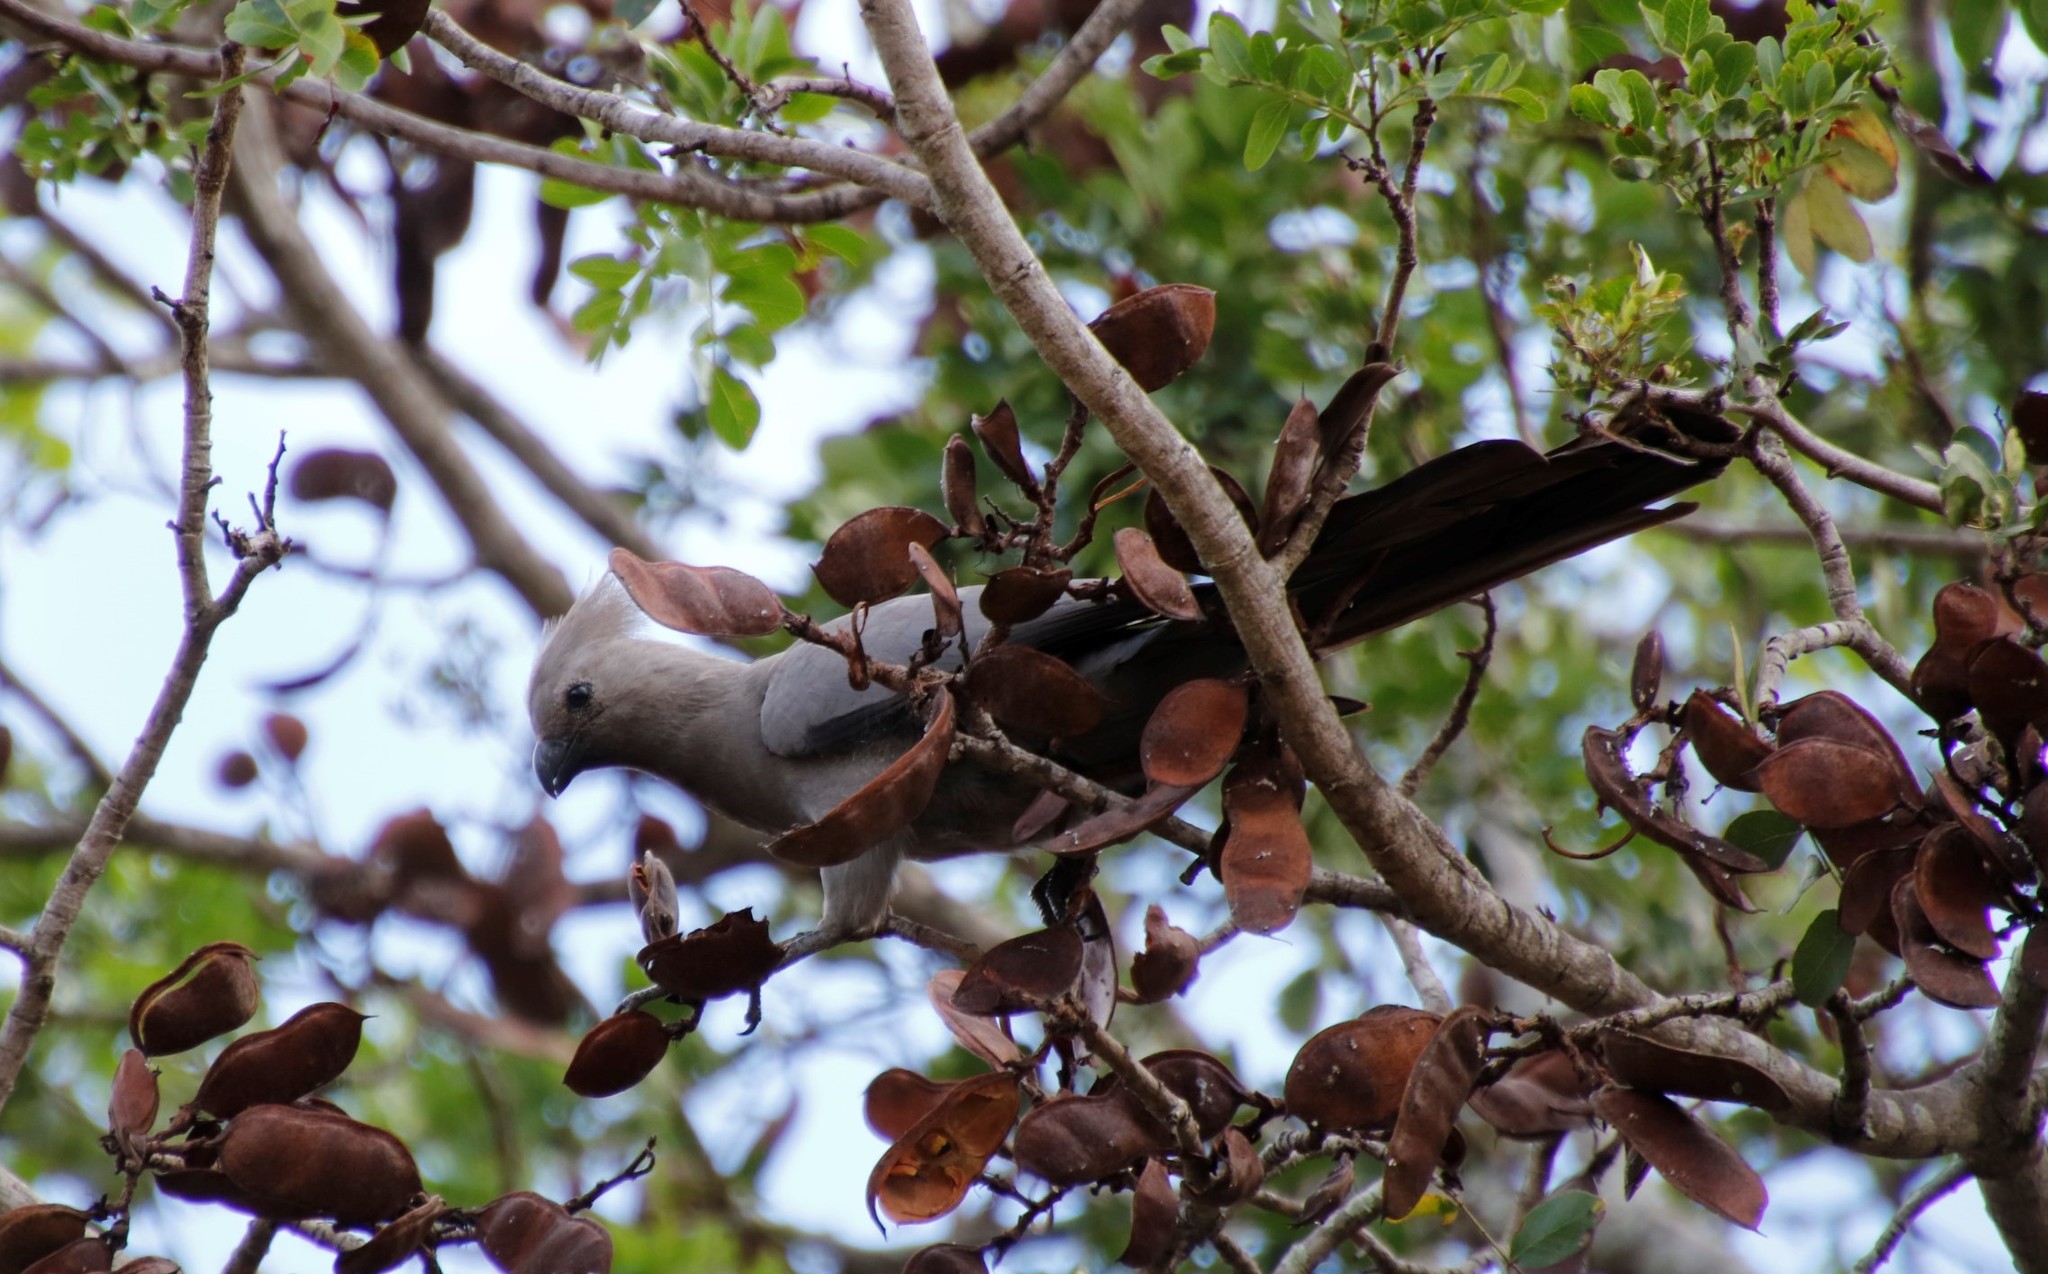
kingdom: Animalia
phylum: Chordata
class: Aves
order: Musophagiformes
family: Musophagidae
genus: Corythaixoides
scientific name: Corythaixoides concolor
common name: Grey go-away-bird
